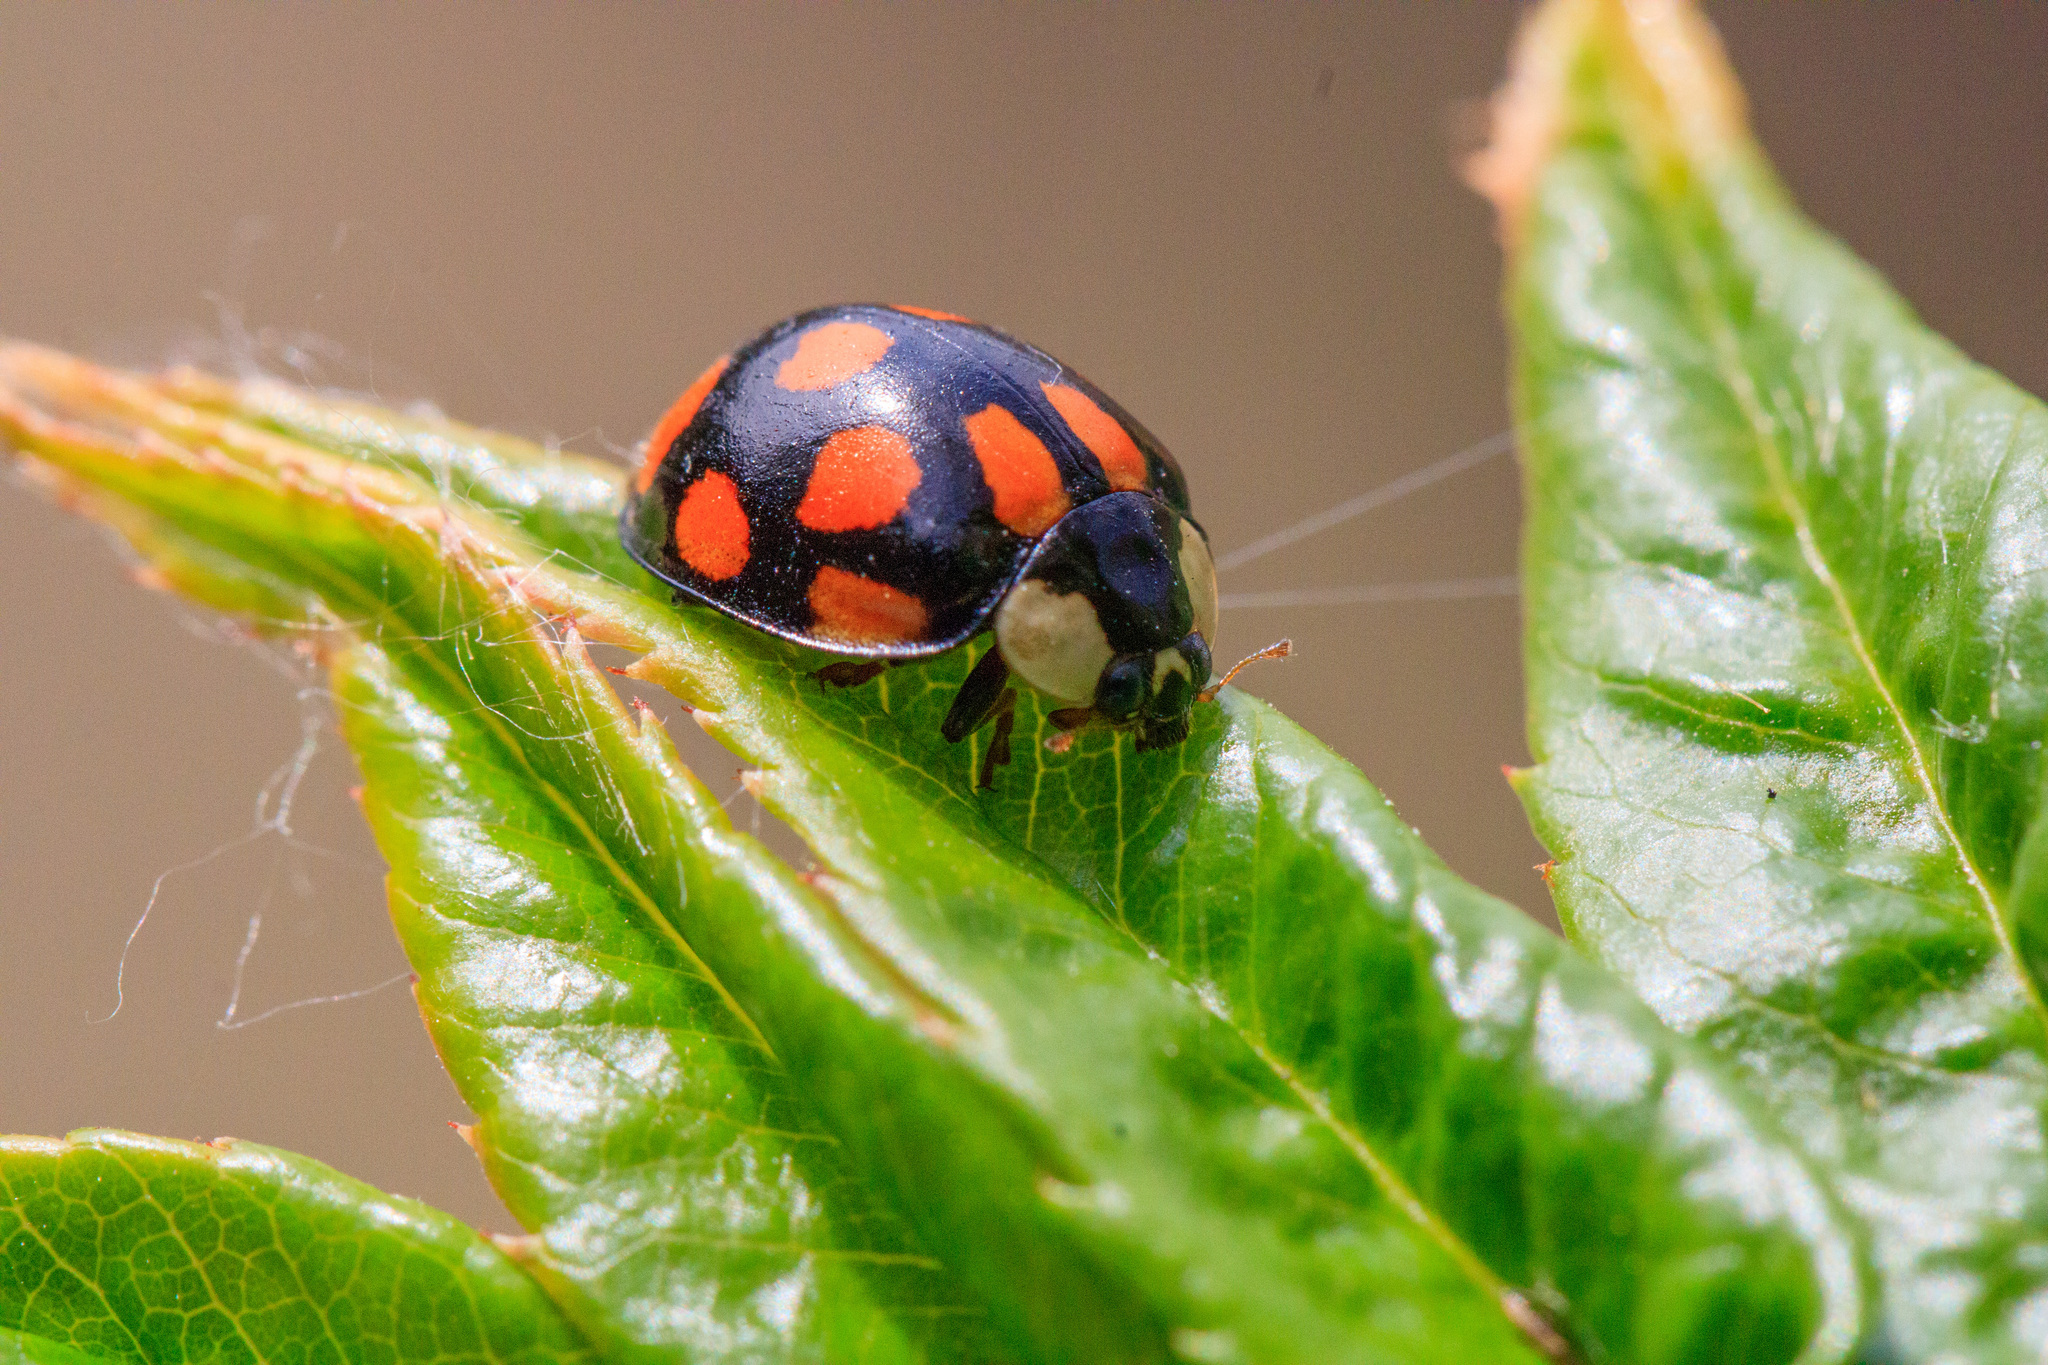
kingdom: Animalia
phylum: Arthropoda
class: Insecta
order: Coleoptera
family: Coccinellidae
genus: Harmonia
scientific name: Harmonia axyridis
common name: Harlequin ladybird
